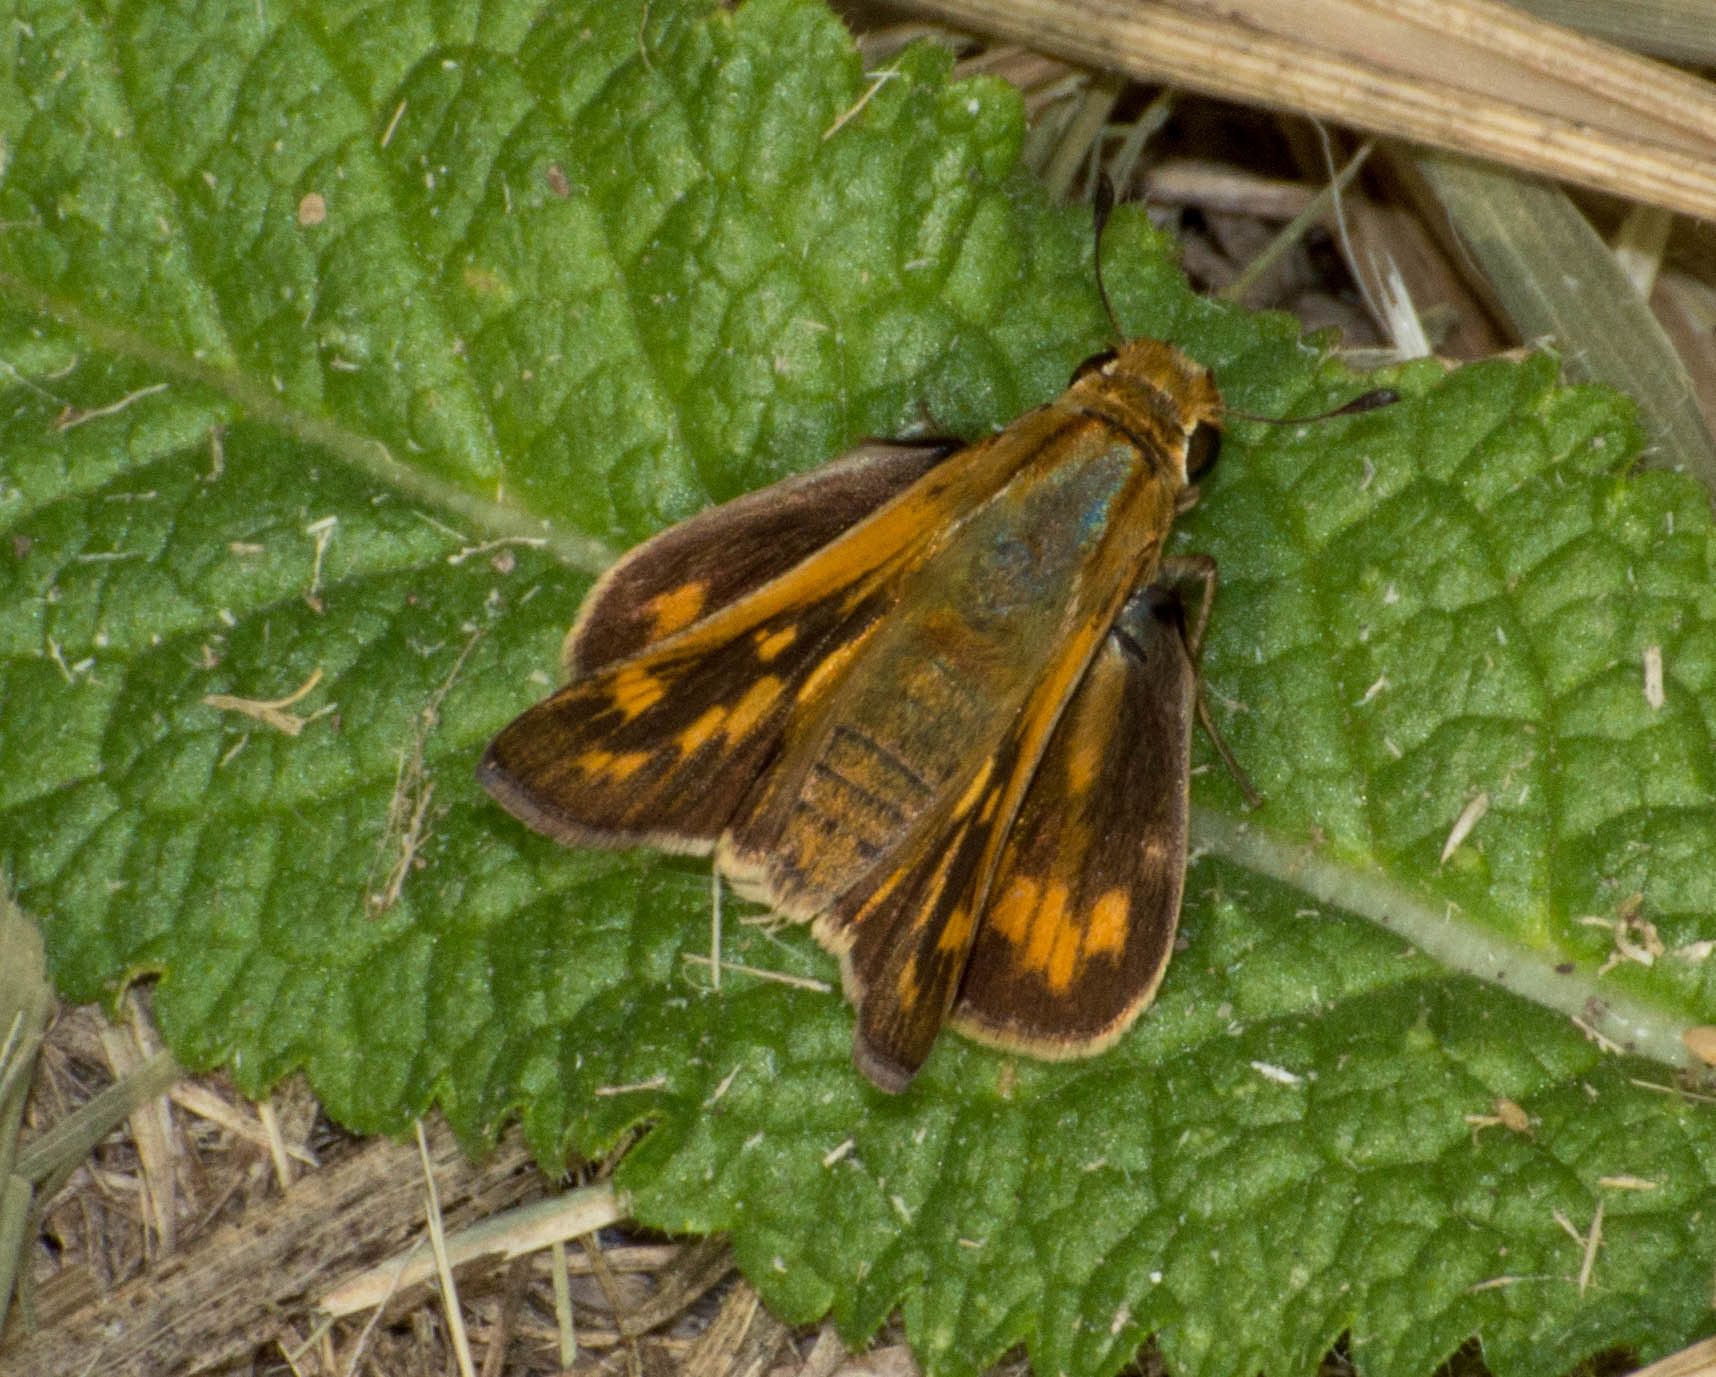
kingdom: Animalia
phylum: Arthropoda
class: Insecta
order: Lepidoptera
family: Hesperiidae
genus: Hylephila
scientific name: Hylephila phyleus
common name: Fiery skipper
